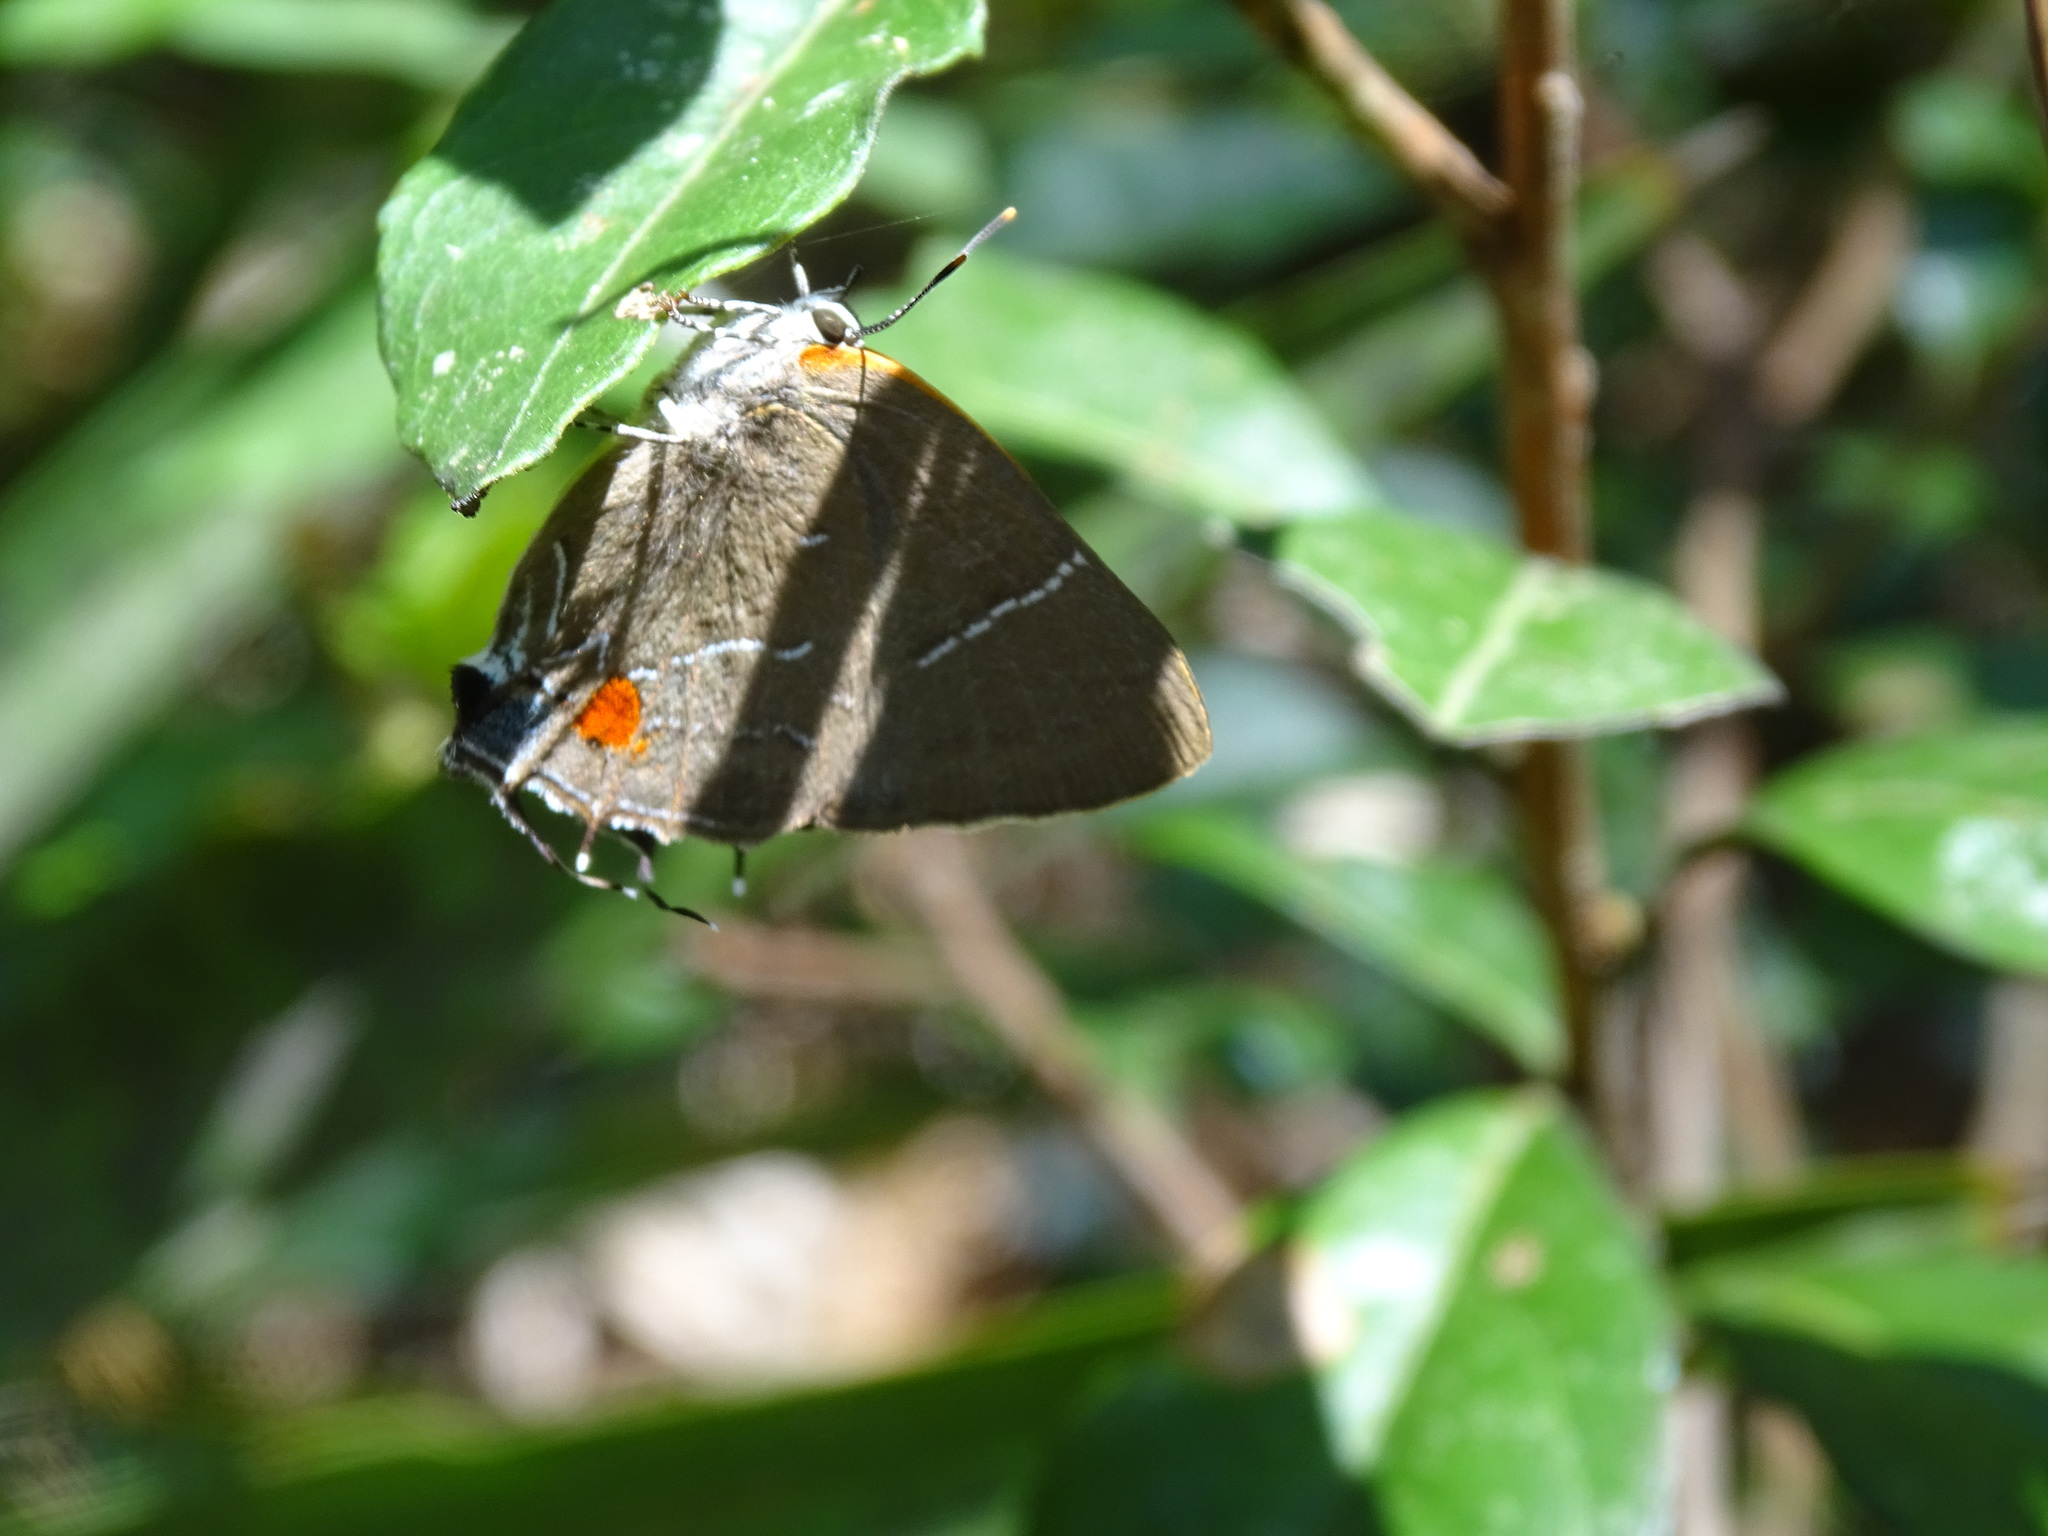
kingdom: Animalia
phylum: Arthropoda
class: Insecta
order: Lepidoptera
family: Lycaenidae
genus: Parrhasius
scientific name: Parrhasius m-album
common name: White m hairstreak
